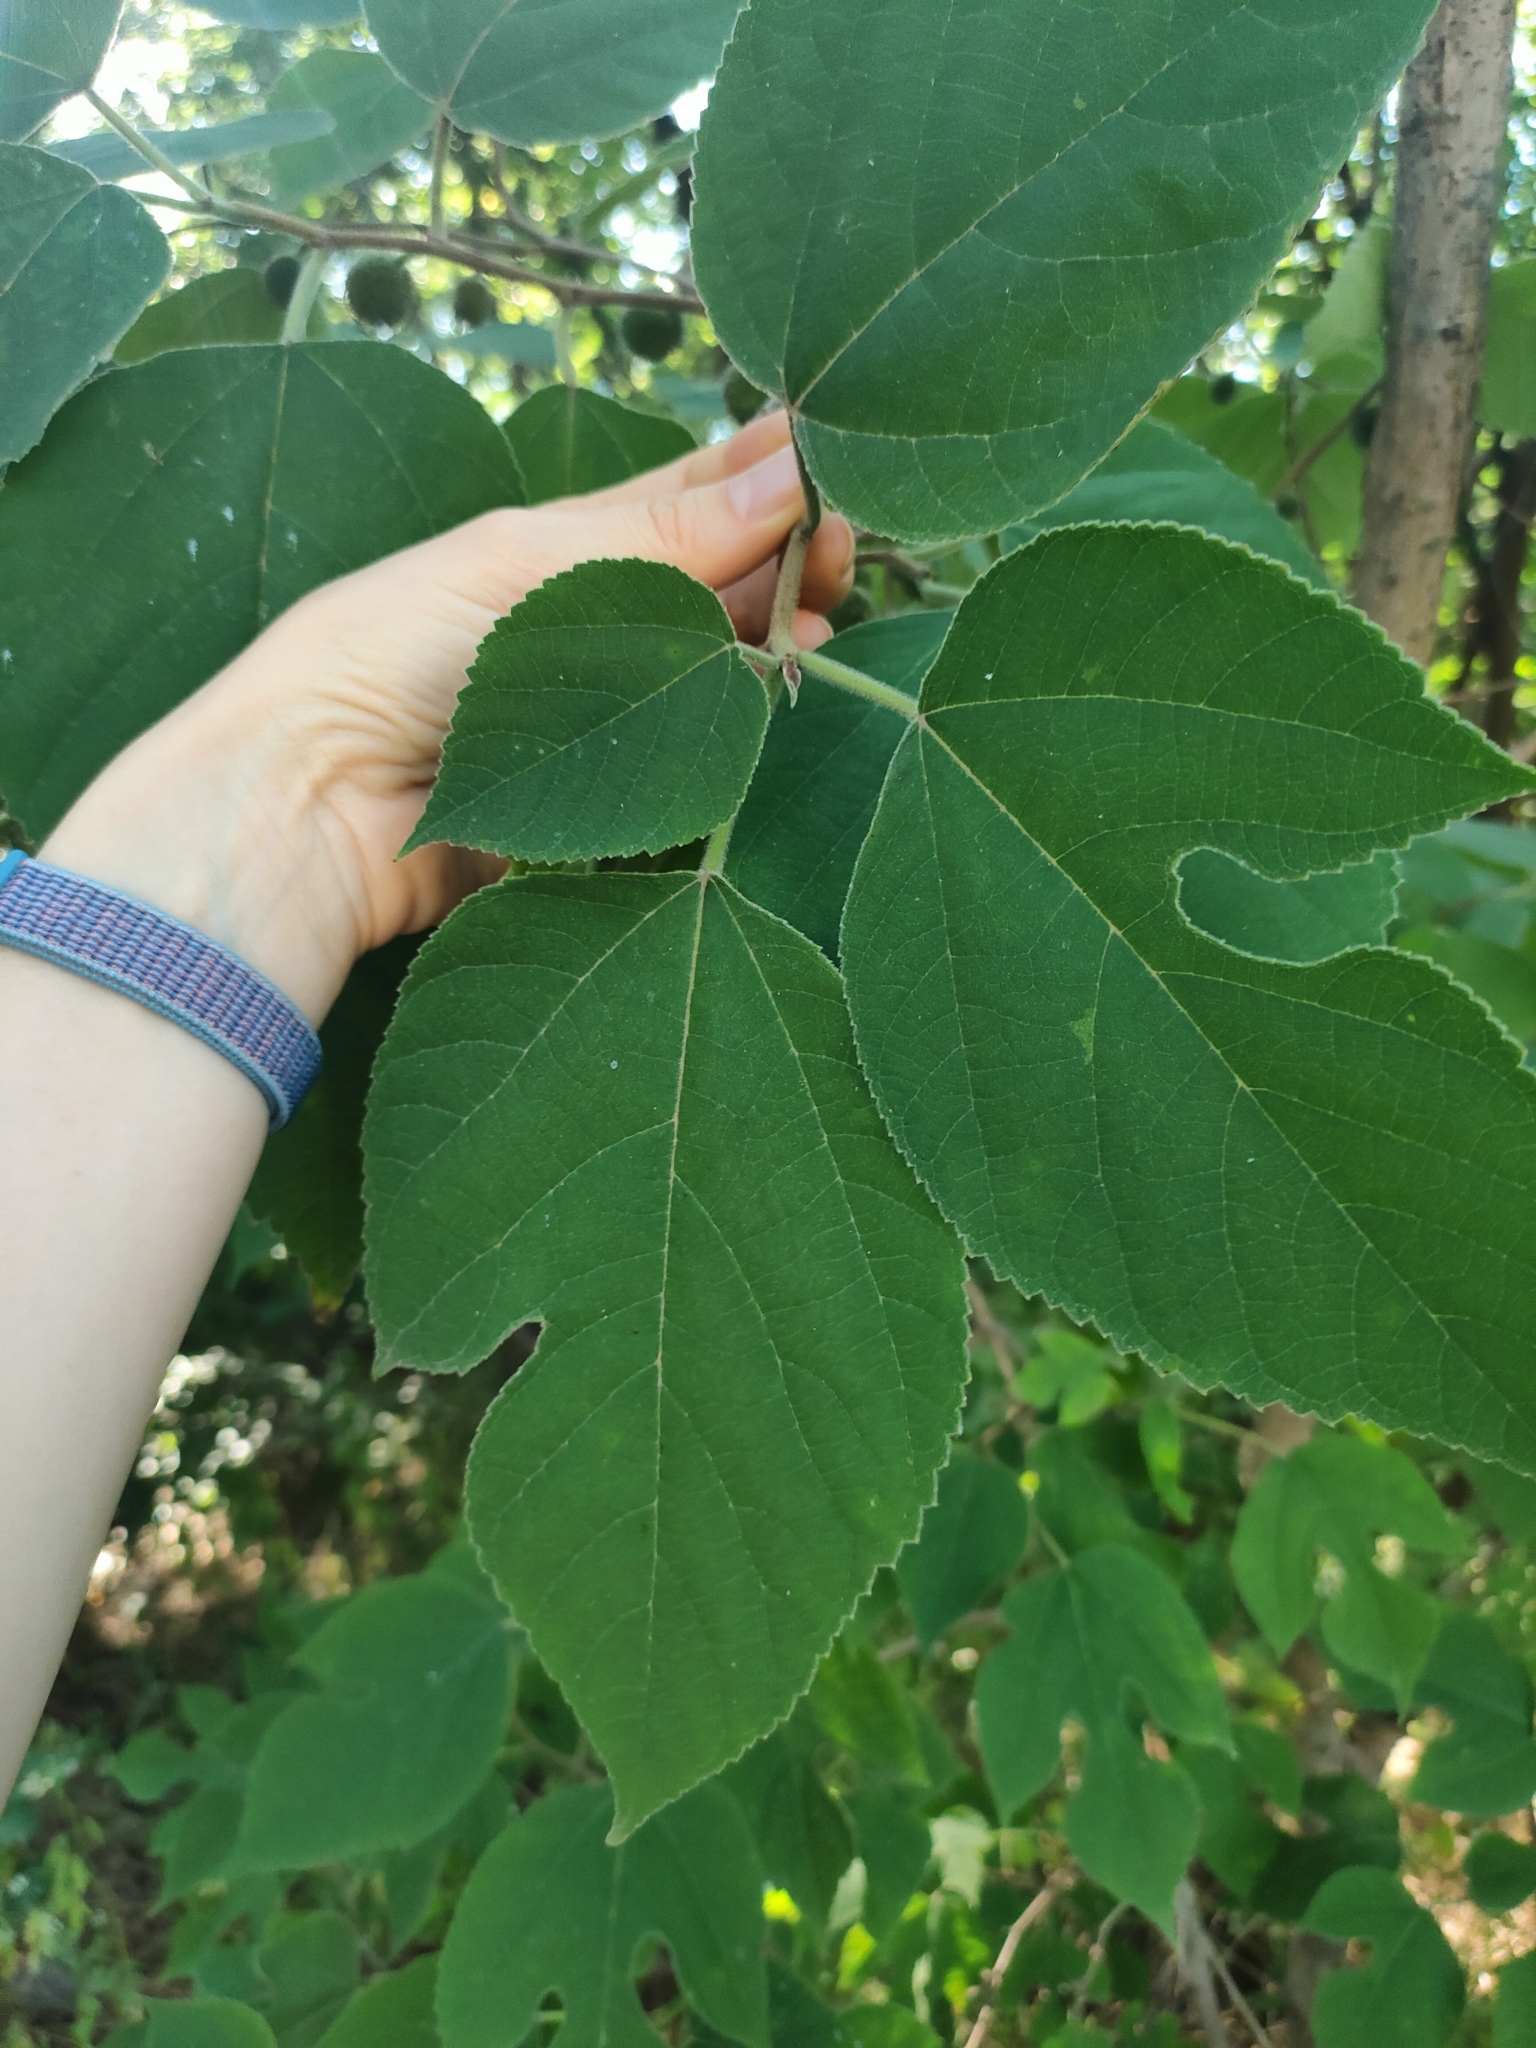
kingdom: Plantae
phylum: Tracheophyta
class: Magnoliopsida
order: Rosales
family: Moraceae
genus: Broussonetia
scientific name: Broussonetia papyrifera
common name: Paper mulberry
